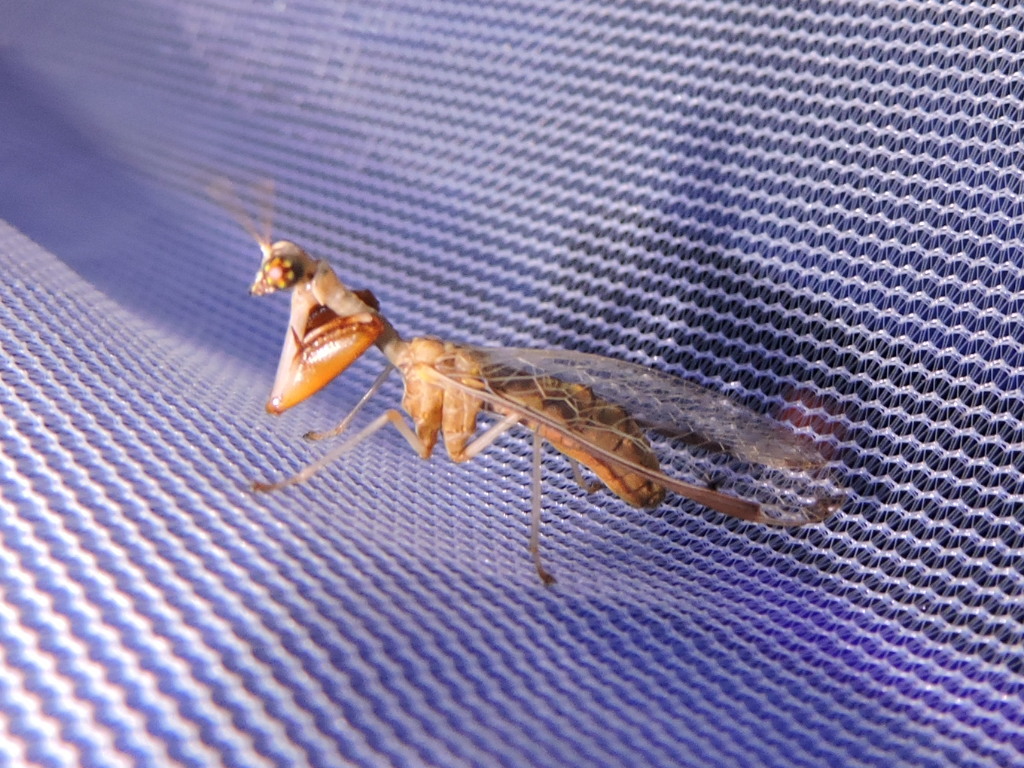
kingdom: Animalia
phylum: Arthropoda
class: Insecta
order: Neuroptera
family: Mantispidae
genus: Dicromantispa
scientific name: Dicromantispa interrupta
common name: Four-spotted mantidfly
